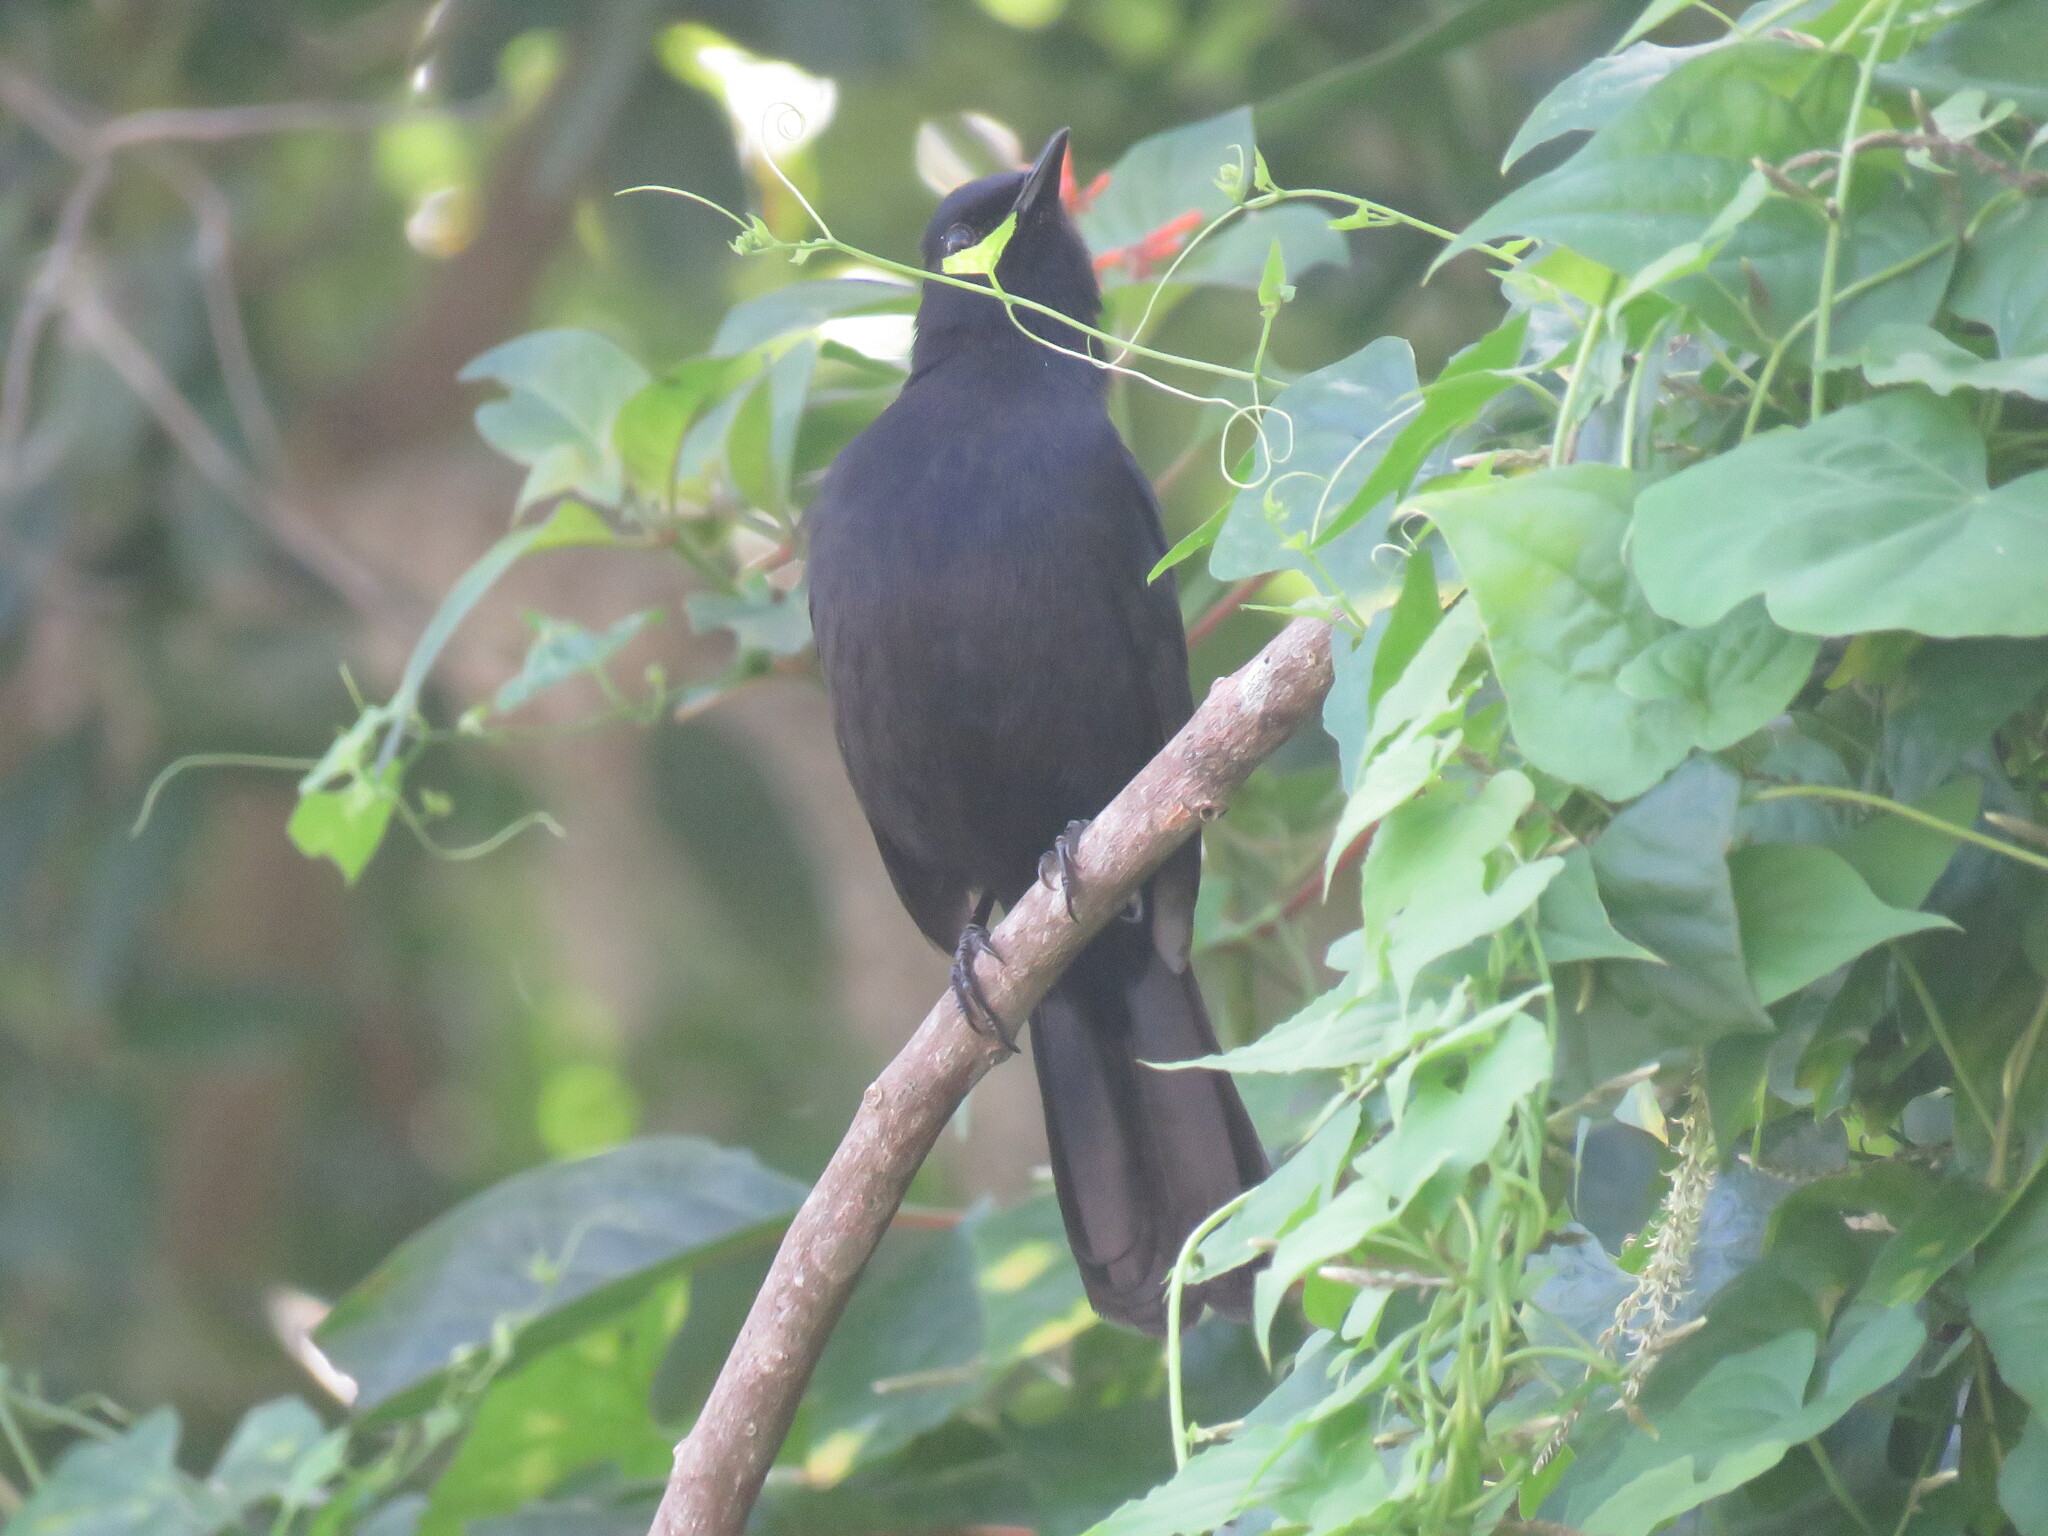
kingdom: Animalia
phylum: Chordata
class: Aves
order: Passeriformes
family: Mimidae
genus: Melanoptila
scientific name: Melanoptila glabrirostris
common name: Black catbird
